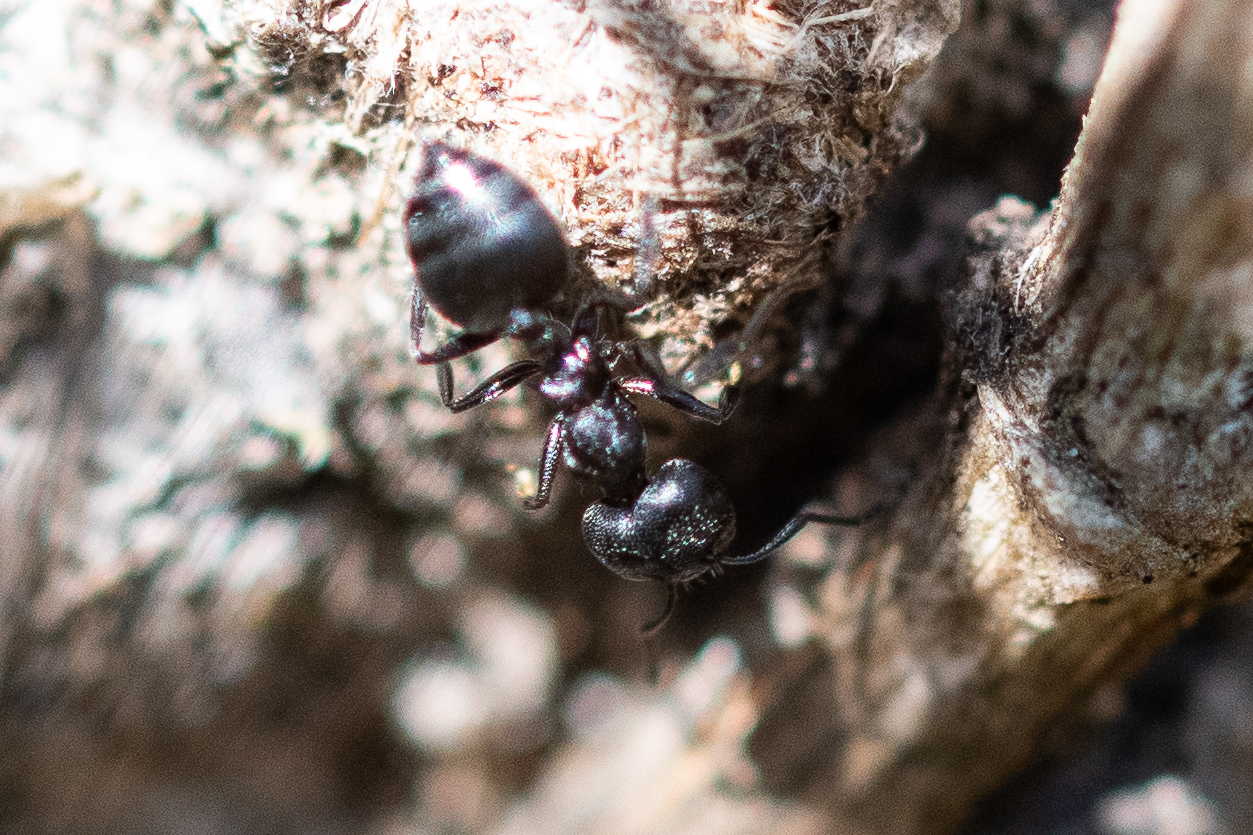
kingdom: Animalia
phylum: Arthropoda
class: Insecta
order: Hymenoptera
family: Formicidae
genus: Crematogaster
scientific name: Crematogaster peringueyi
